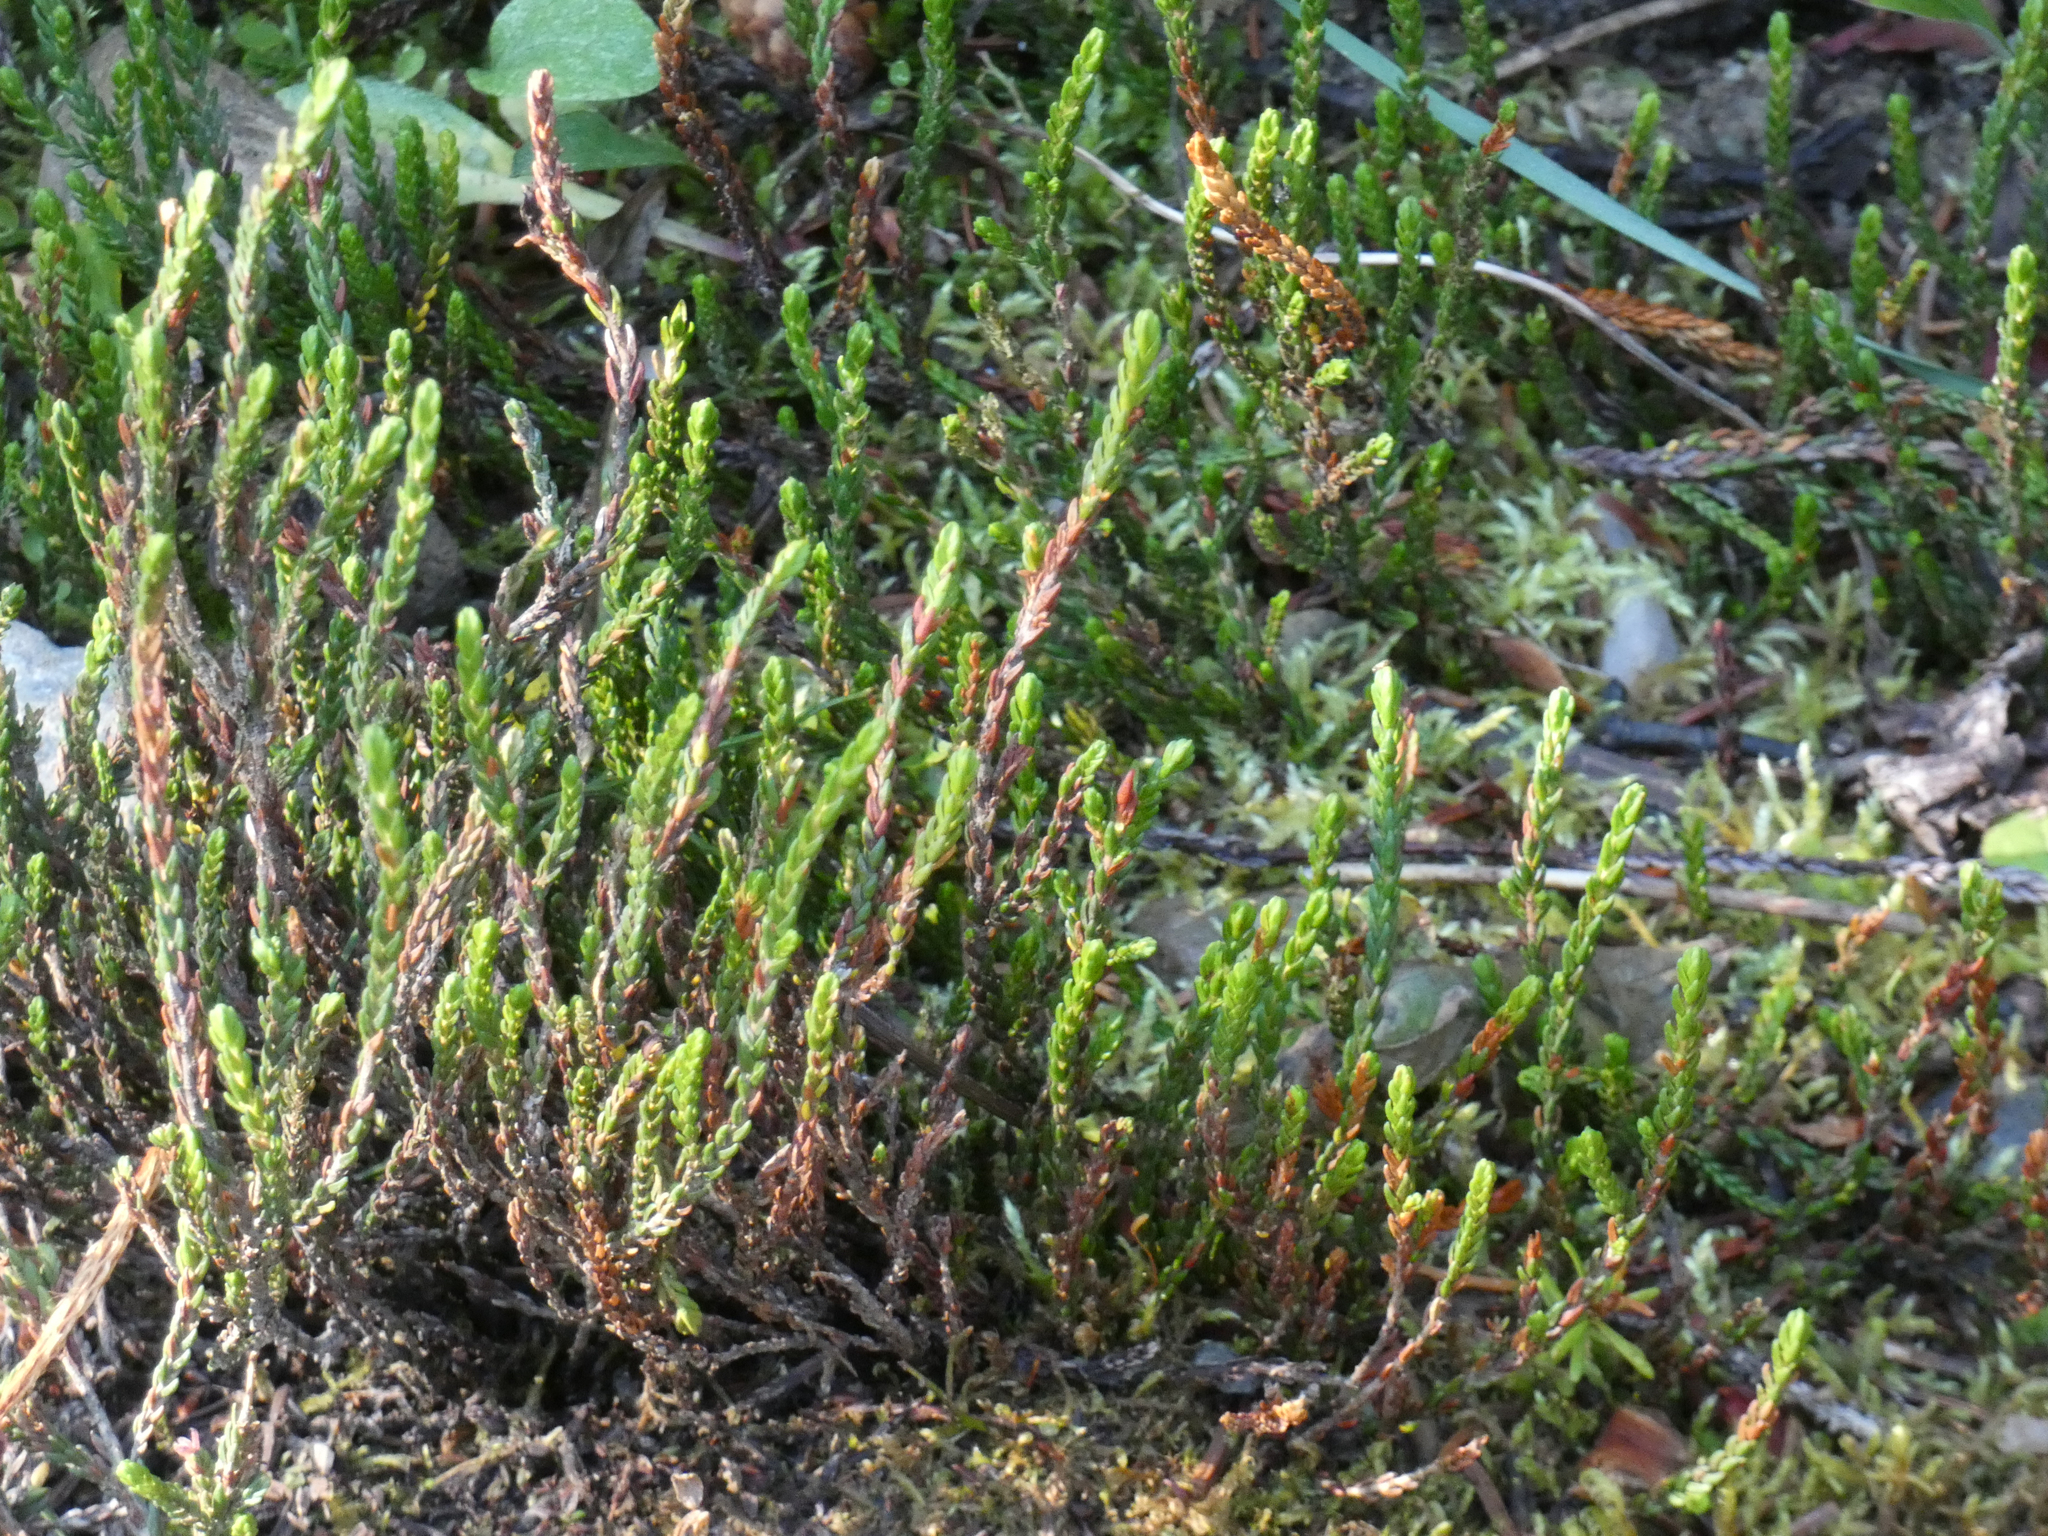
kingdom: Plantae
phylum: Tracheophyta
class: Magnoliopsida
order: Ericales
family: Ericaceae
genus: Cassiope
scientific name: Cassiope mertensiana
